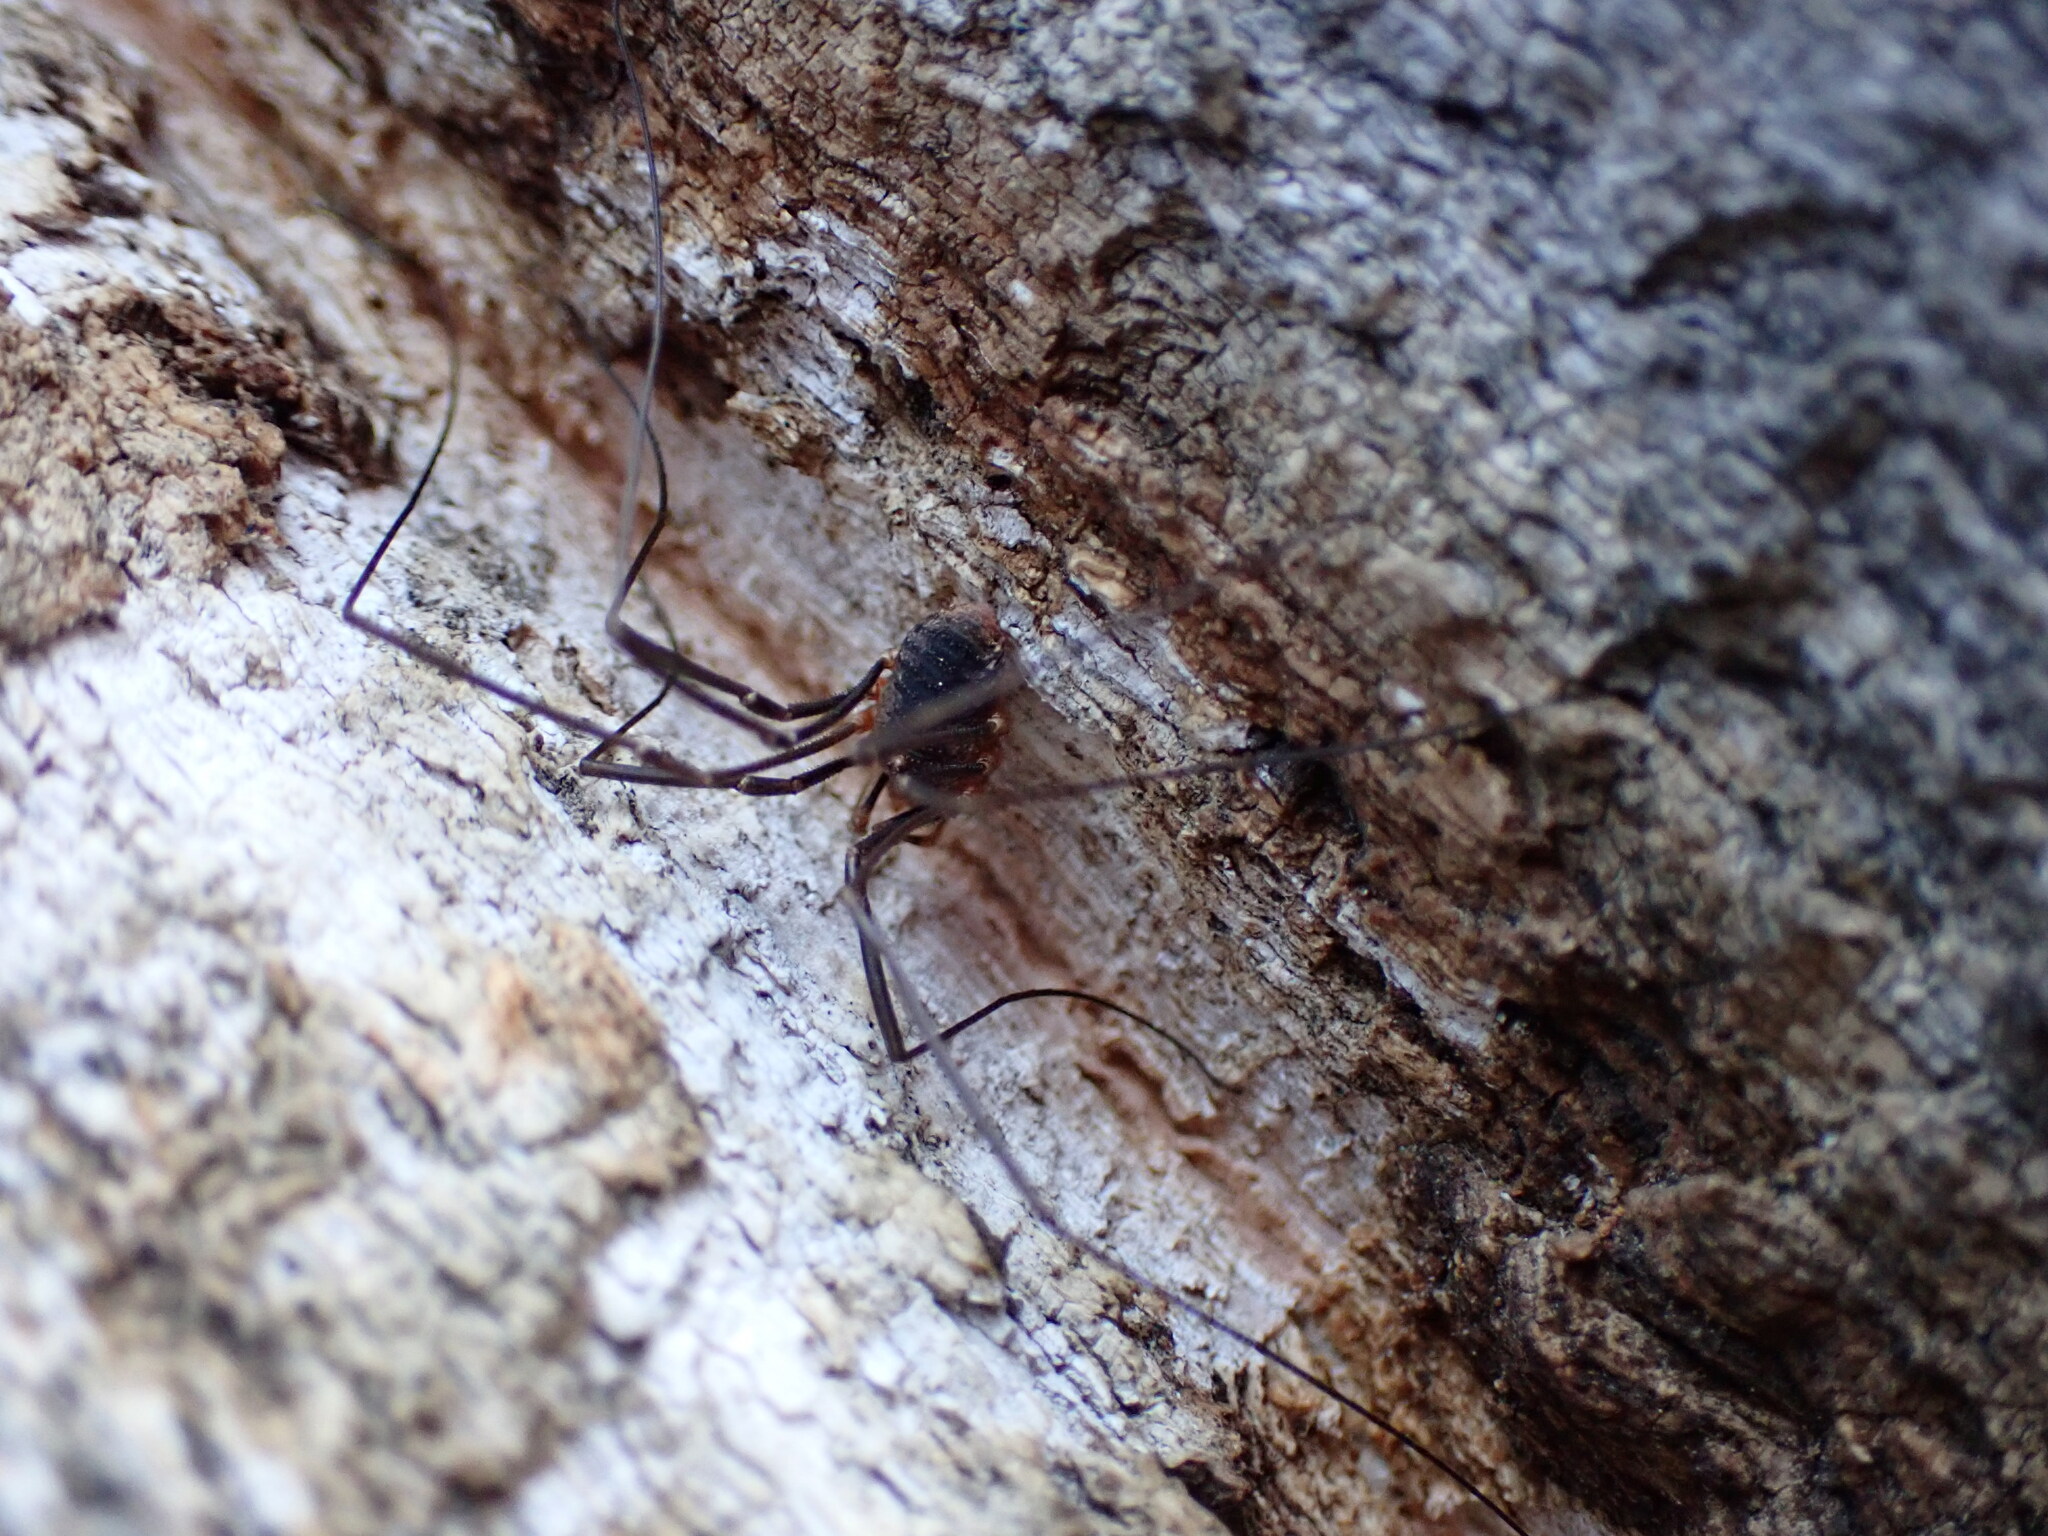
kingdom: Animalia
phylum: Arthropoda
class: Arachnida
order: Opiliones
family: Phalangiidae
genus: Phalangium
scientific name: Phalangium opilio
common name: Daddy longleg
